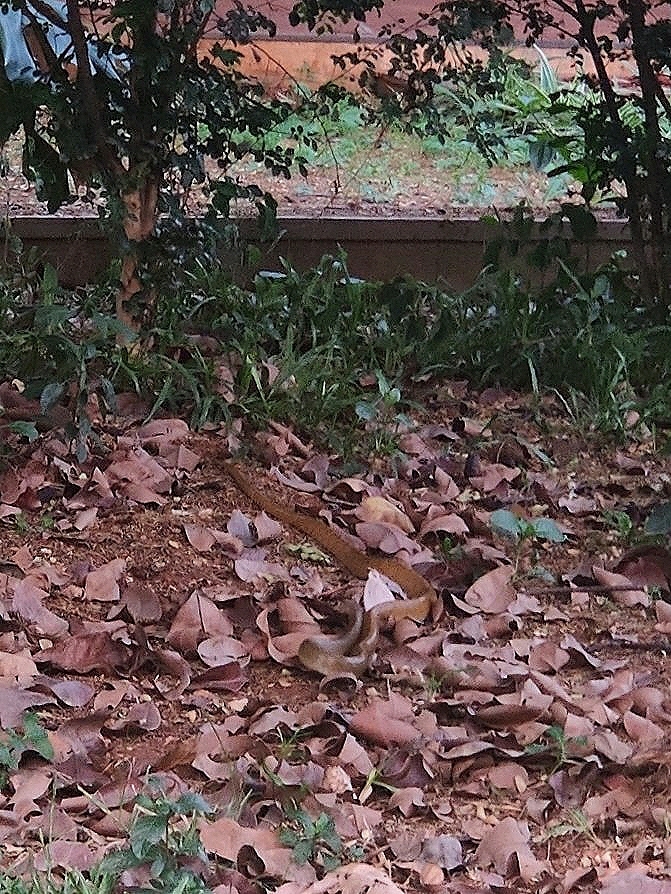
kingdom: Animalia
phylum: Chordata
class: Squamata
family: Colubridae
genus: Ptyas
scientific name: Ptyas mucosa
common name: Oriental ratsnake
